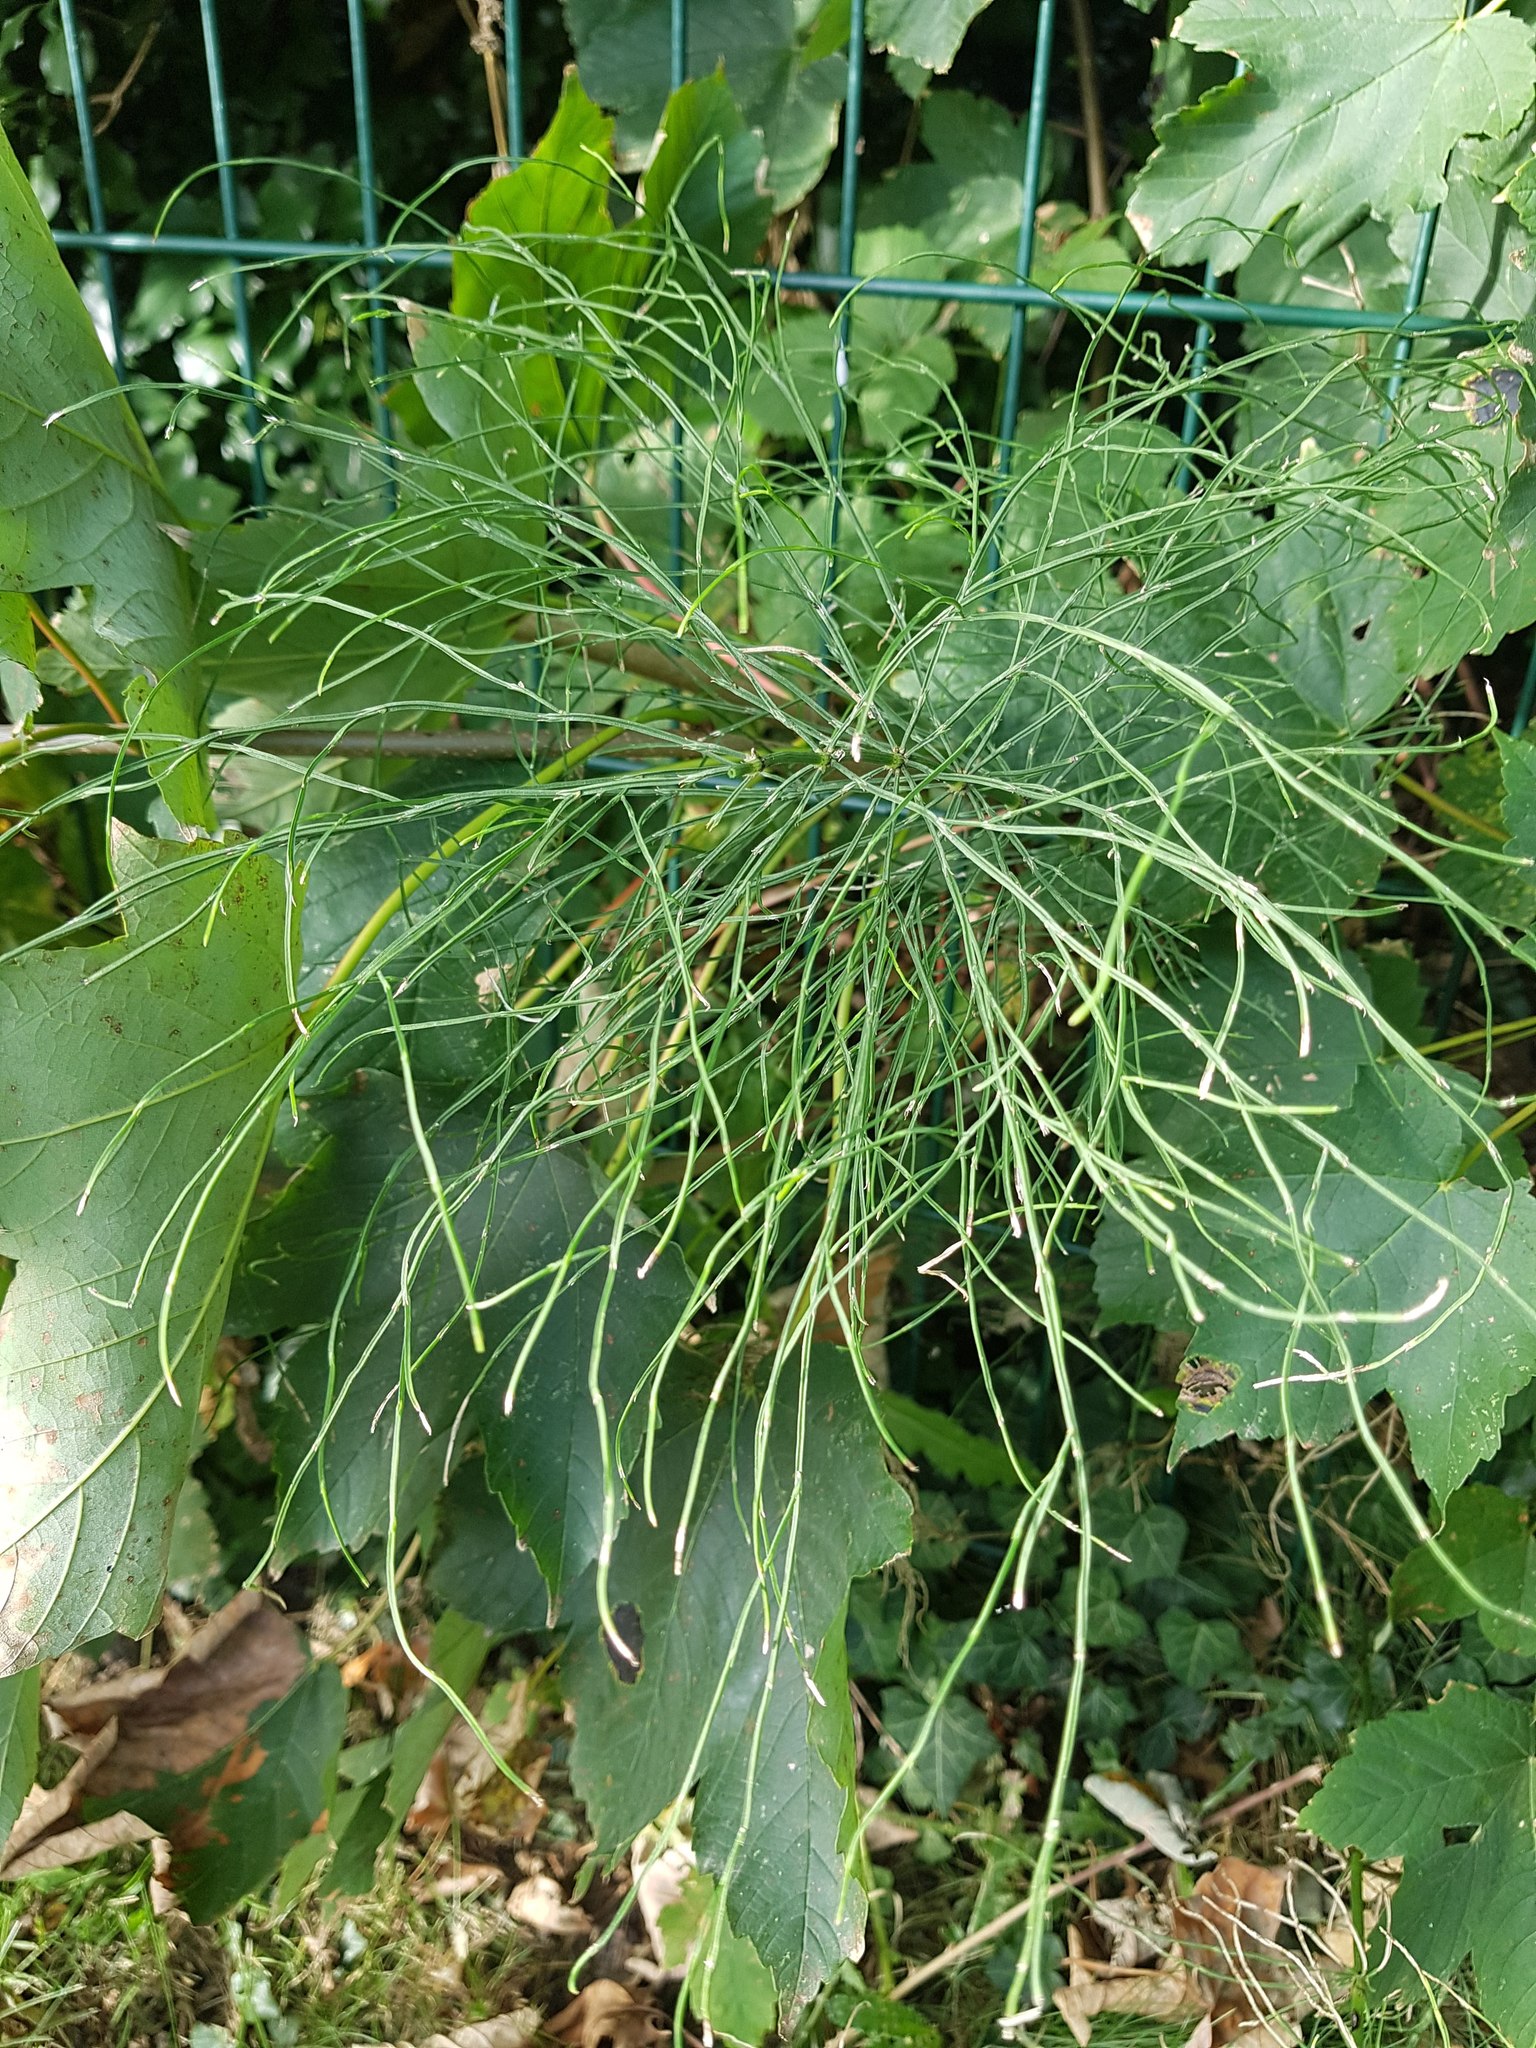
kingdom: Plantae
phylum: Tracheophyta
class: Polypodiopsida
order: Equisetales
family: Equisetaceae
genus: Equisetum
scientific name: Equisetum arvense
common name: Field horsetail
